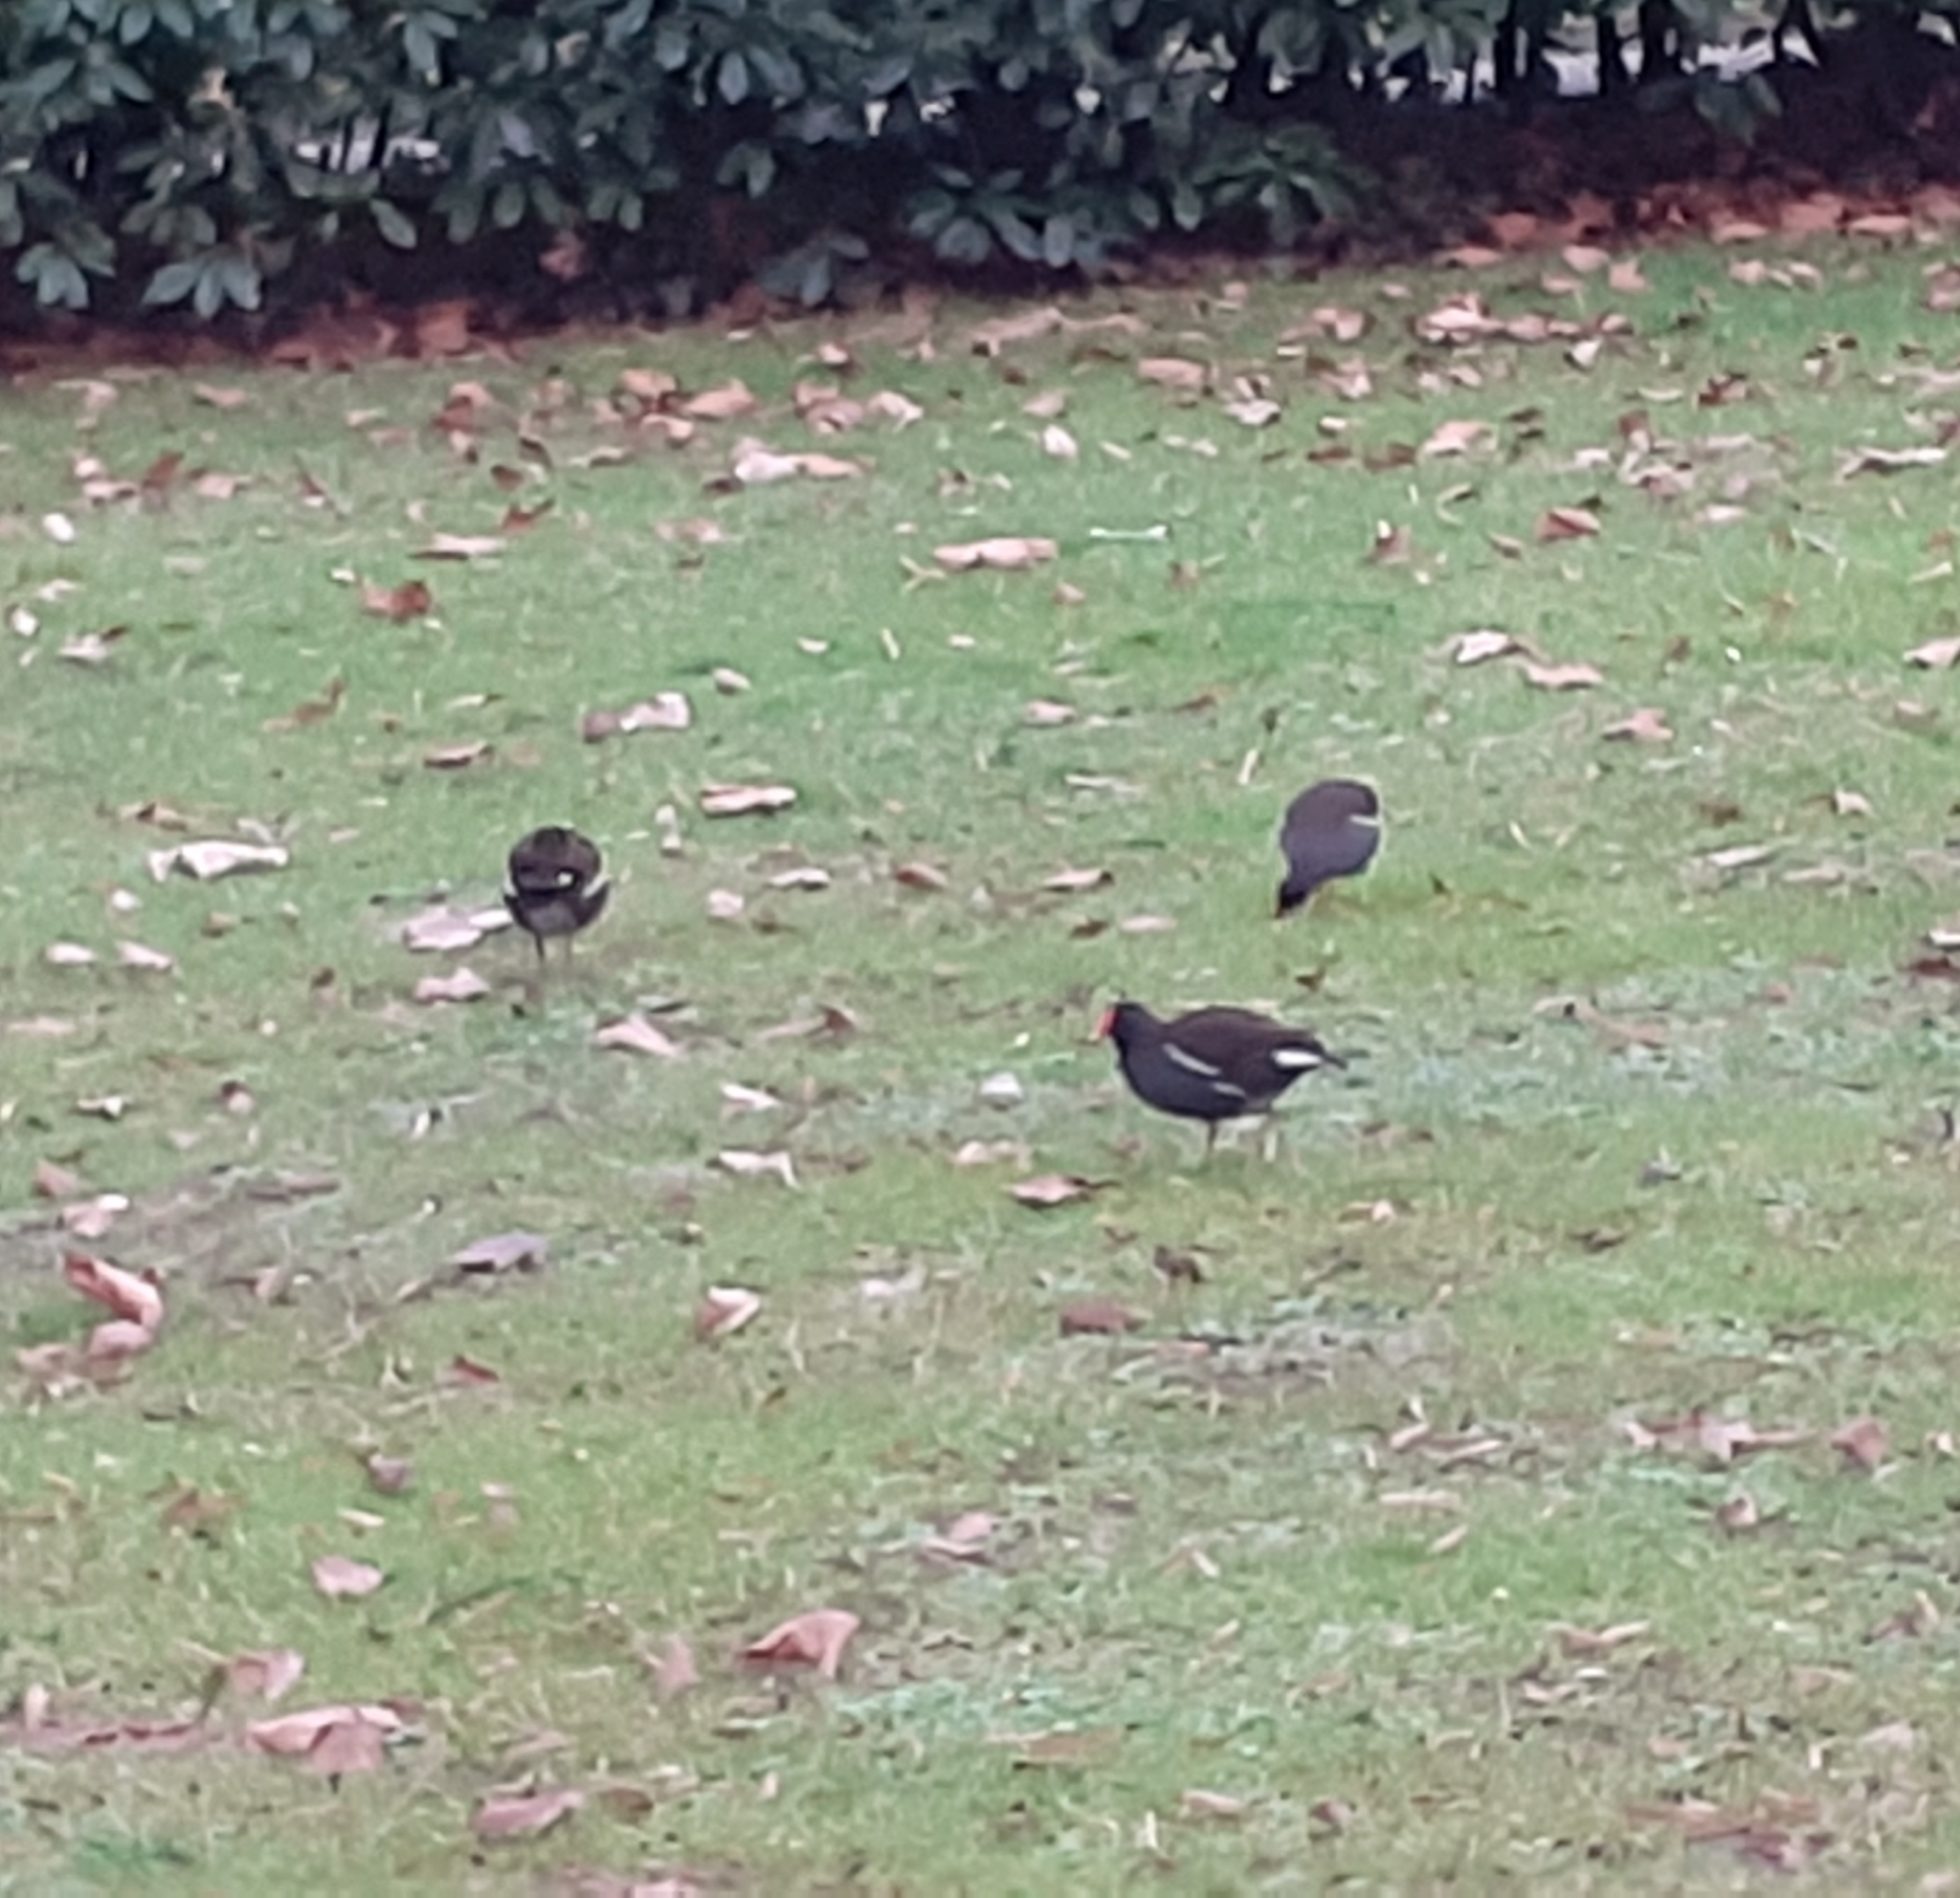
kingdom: Animalia
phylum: Chordata
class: Aves
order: Gruiformes
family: Rallidae
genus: Gallinula
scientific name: Gallinula chloropus
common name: Common moorhen
